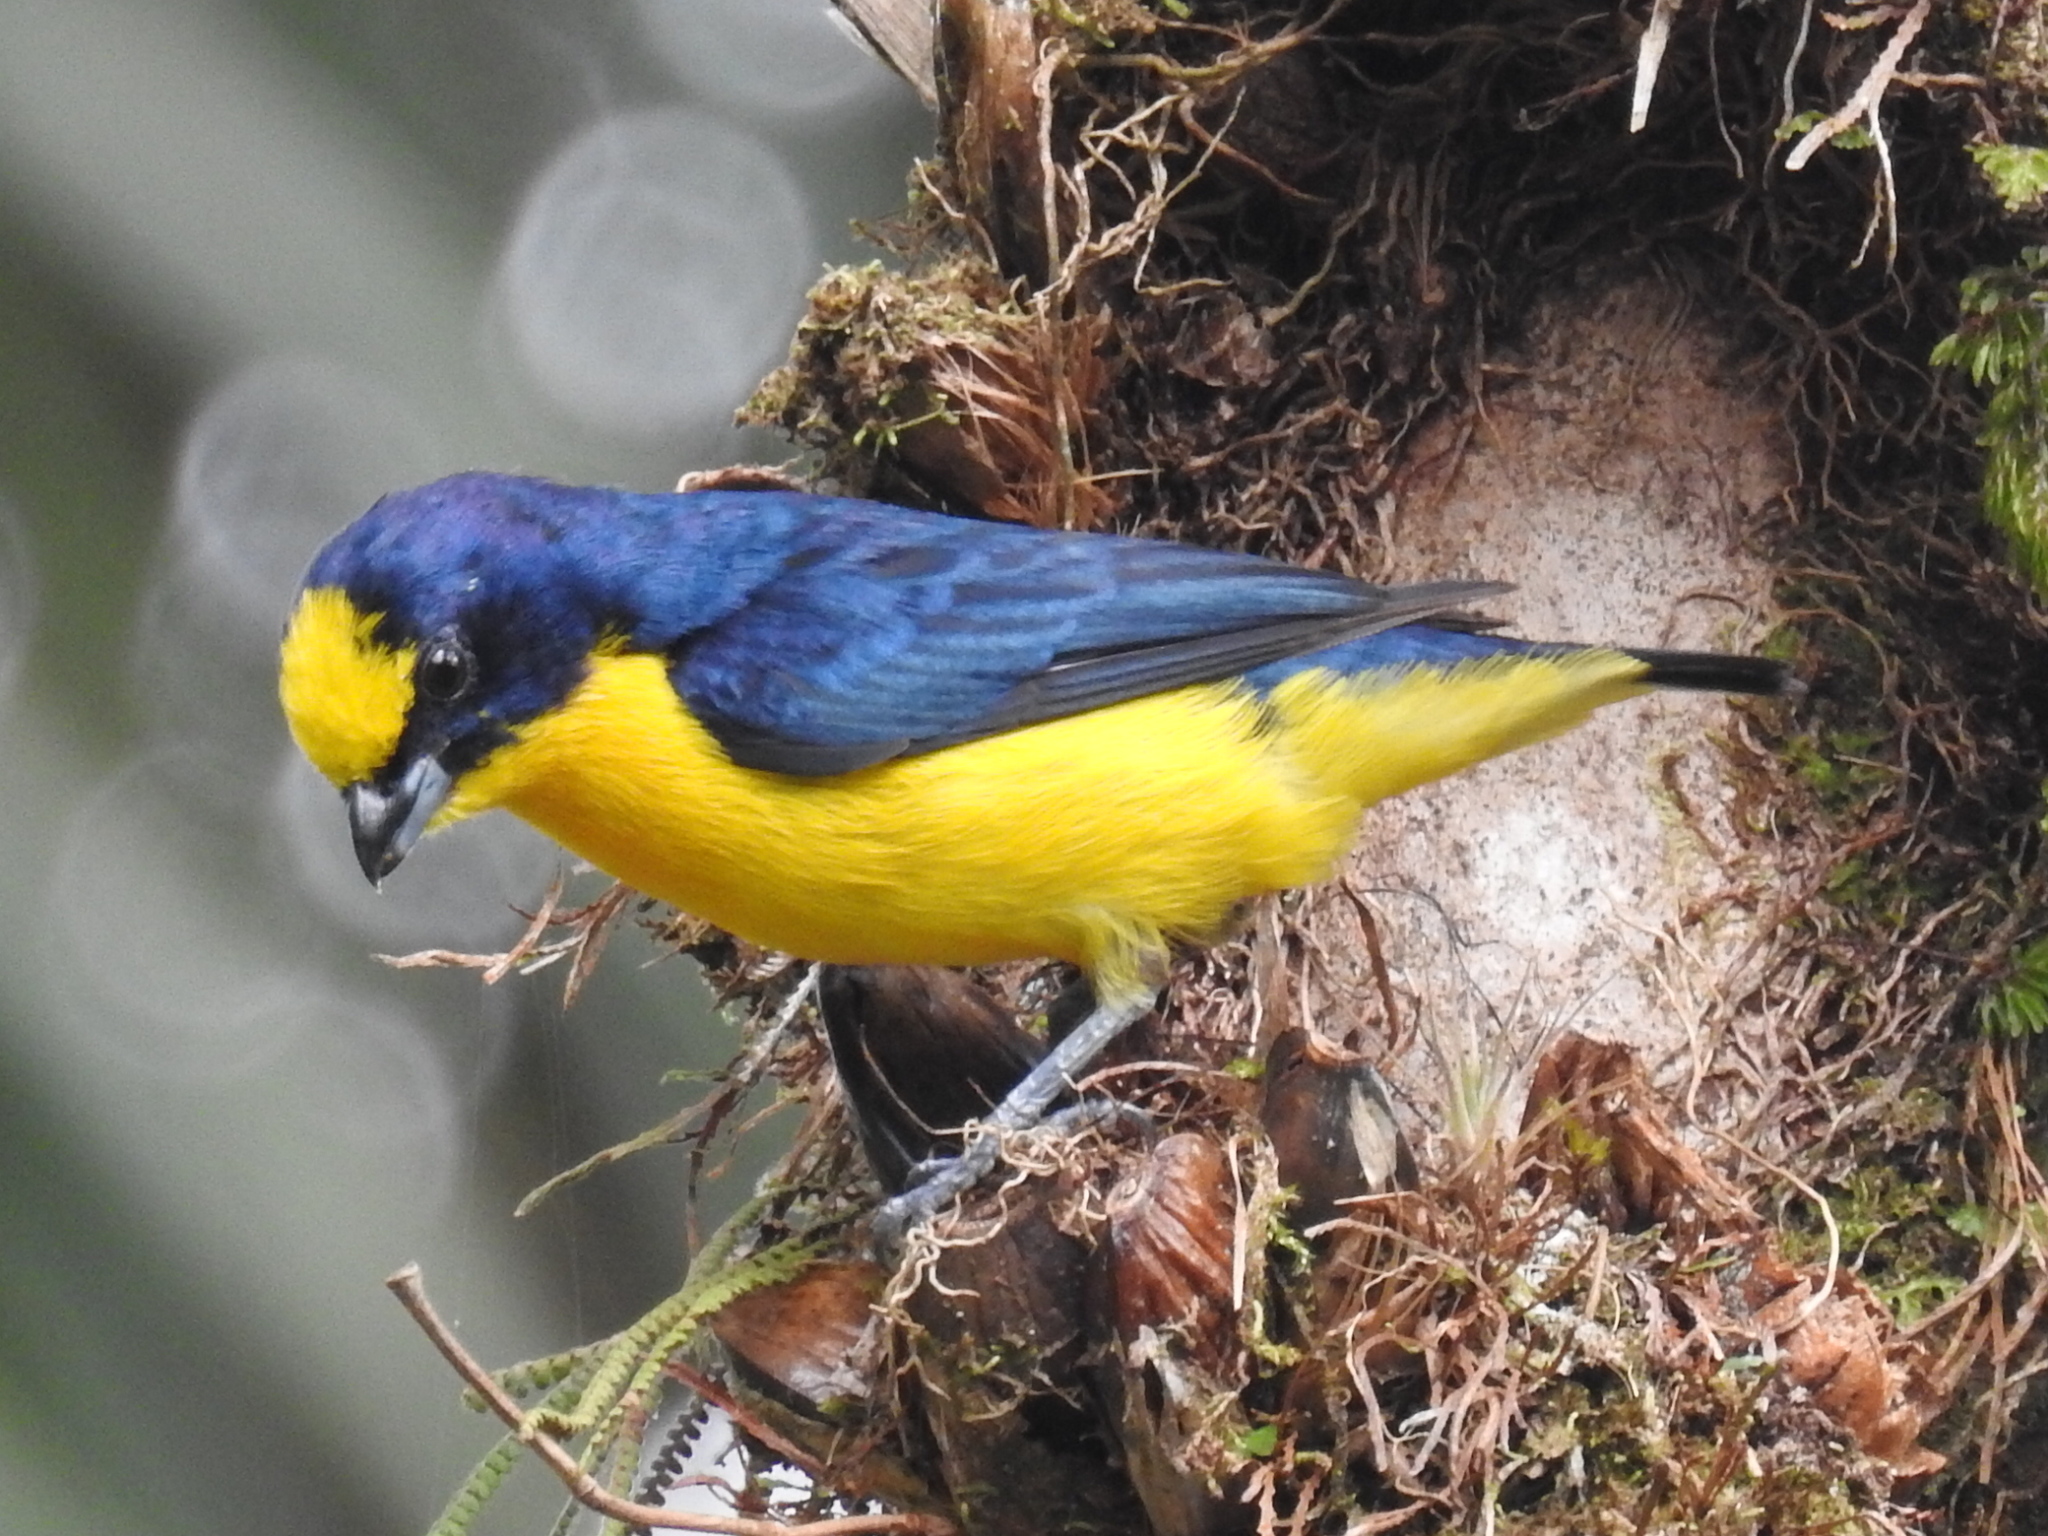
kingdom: Animalia
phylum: Chordata
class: Aves
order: Passeriformes
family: Fringillidae
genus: Euphonia
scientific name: Euphonia laniirostris
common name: Thick-billed euphonia
